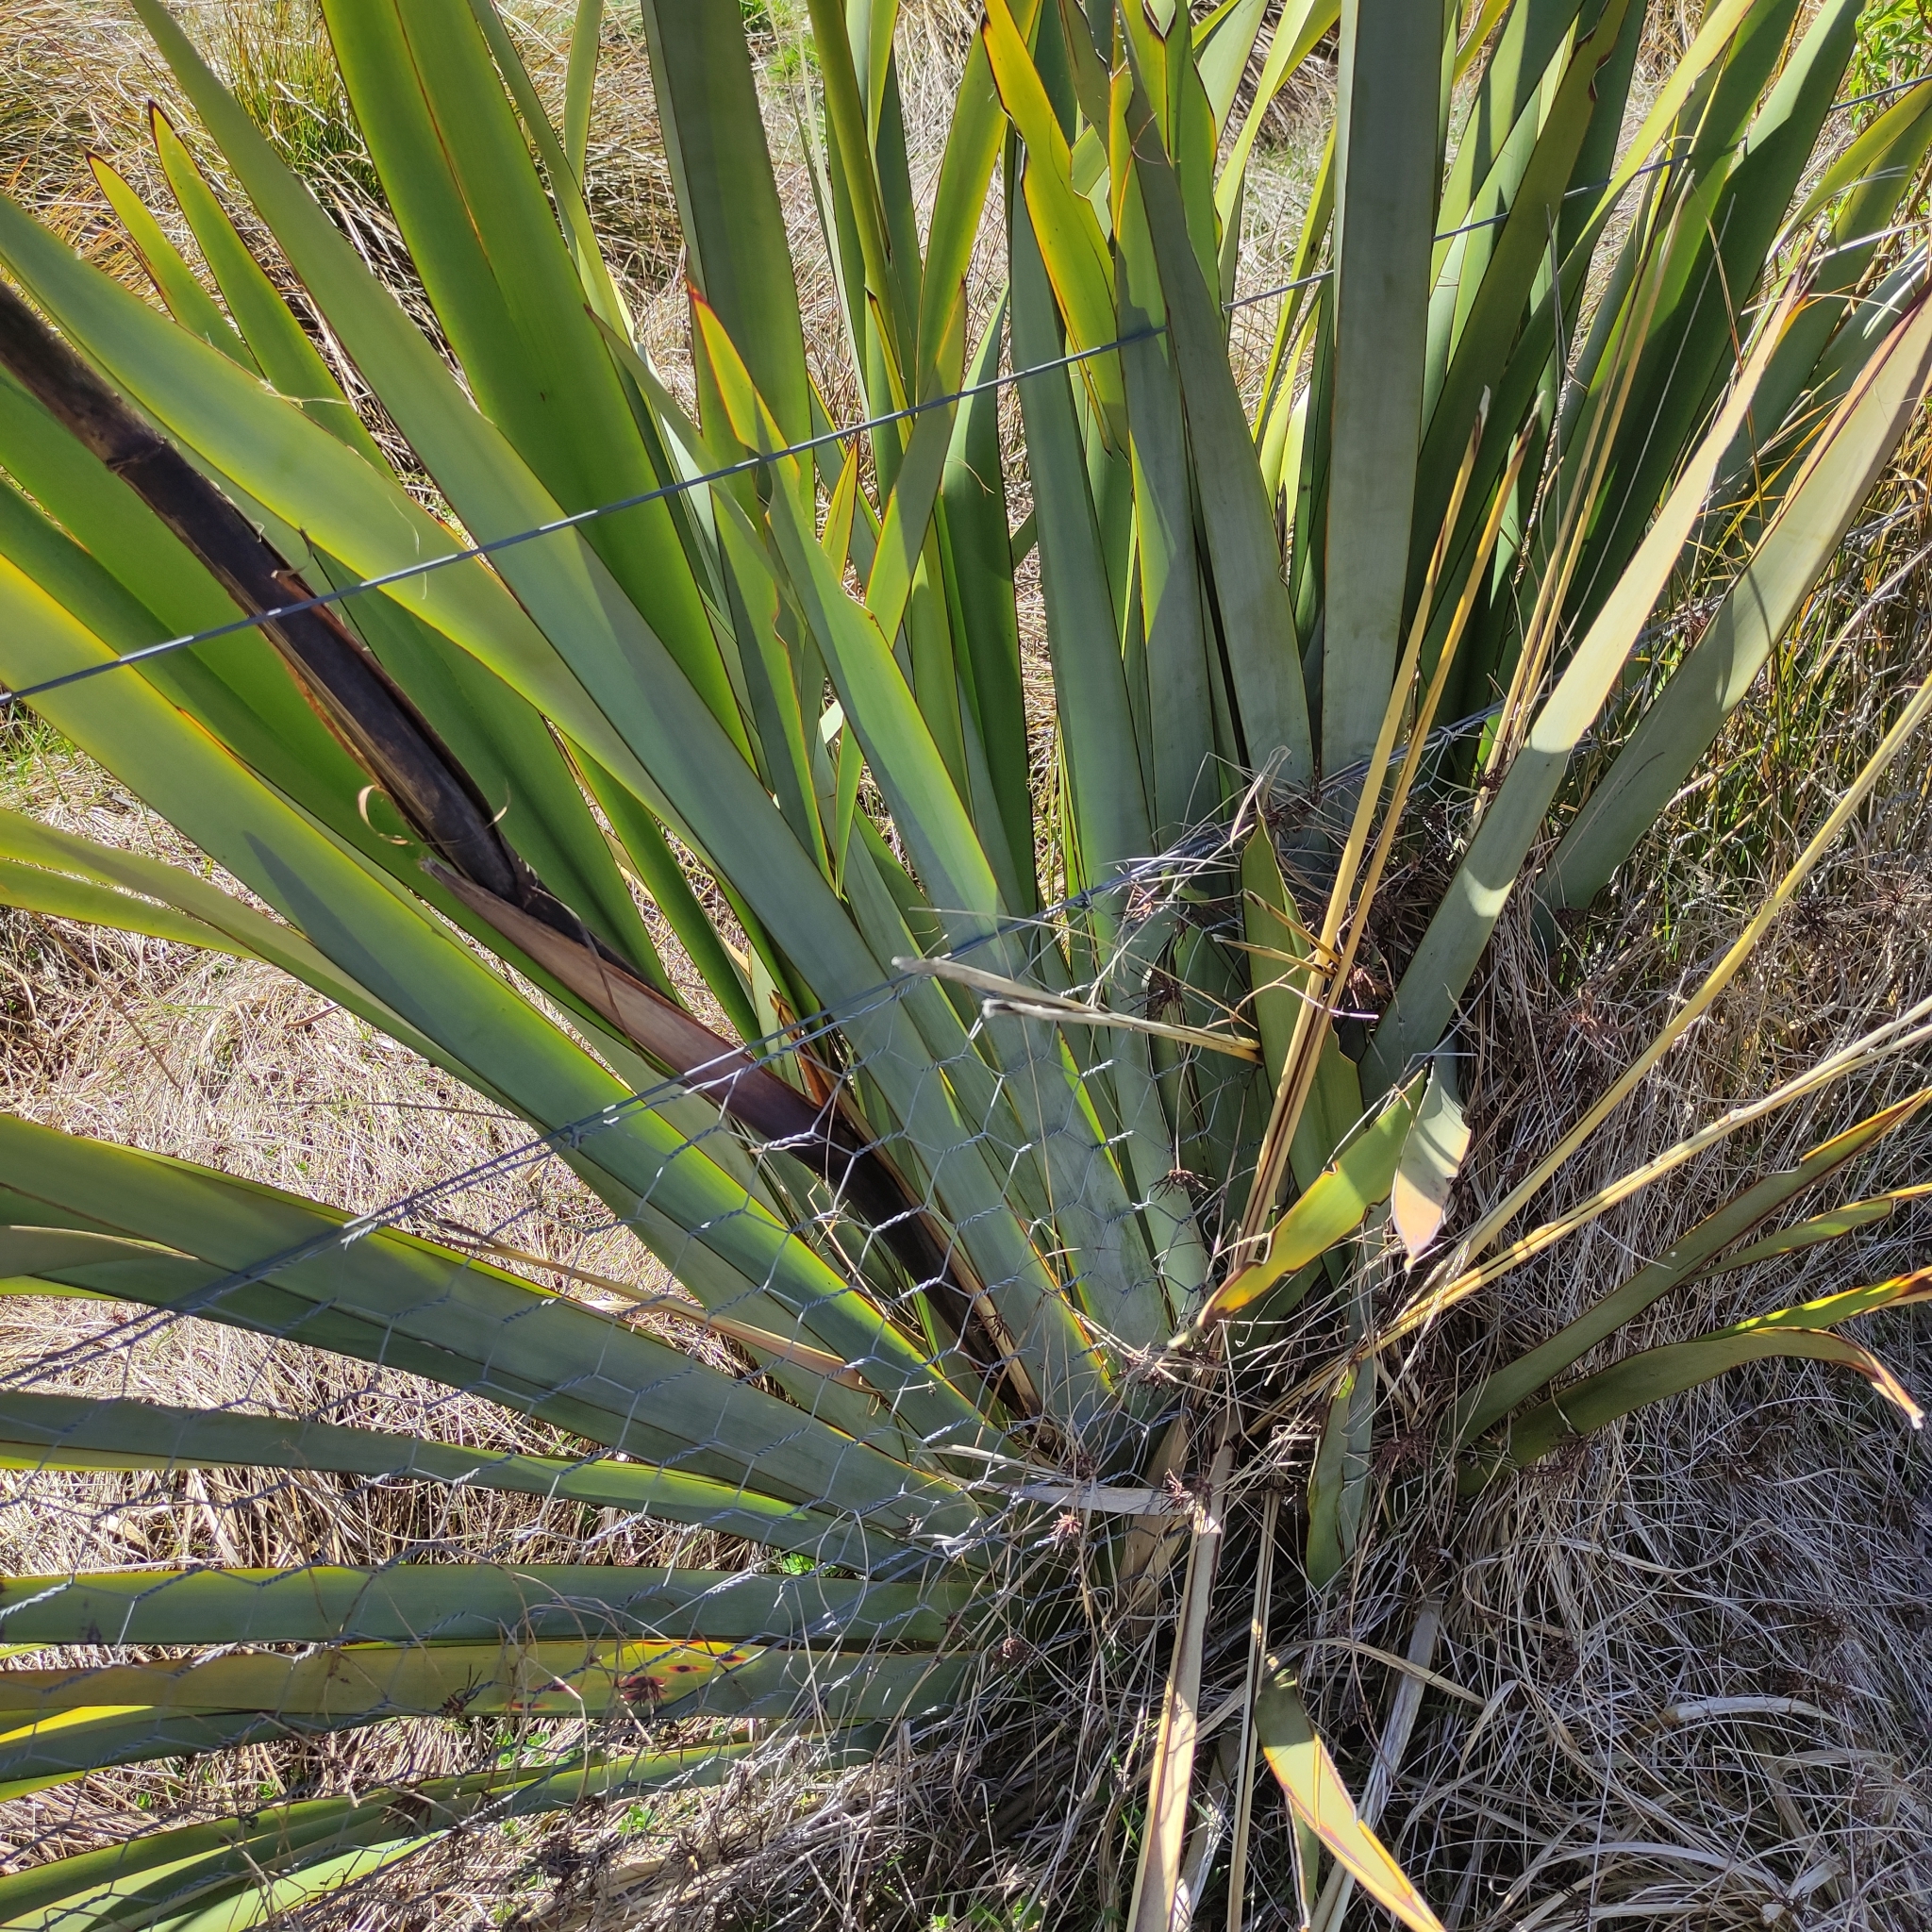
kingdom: Plantae
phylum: Tracheophyta
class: Liliopsida
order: Asparagales
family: Asphodelaceae
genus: Phormium
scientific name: Phormium tenax
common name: New zealand flax
